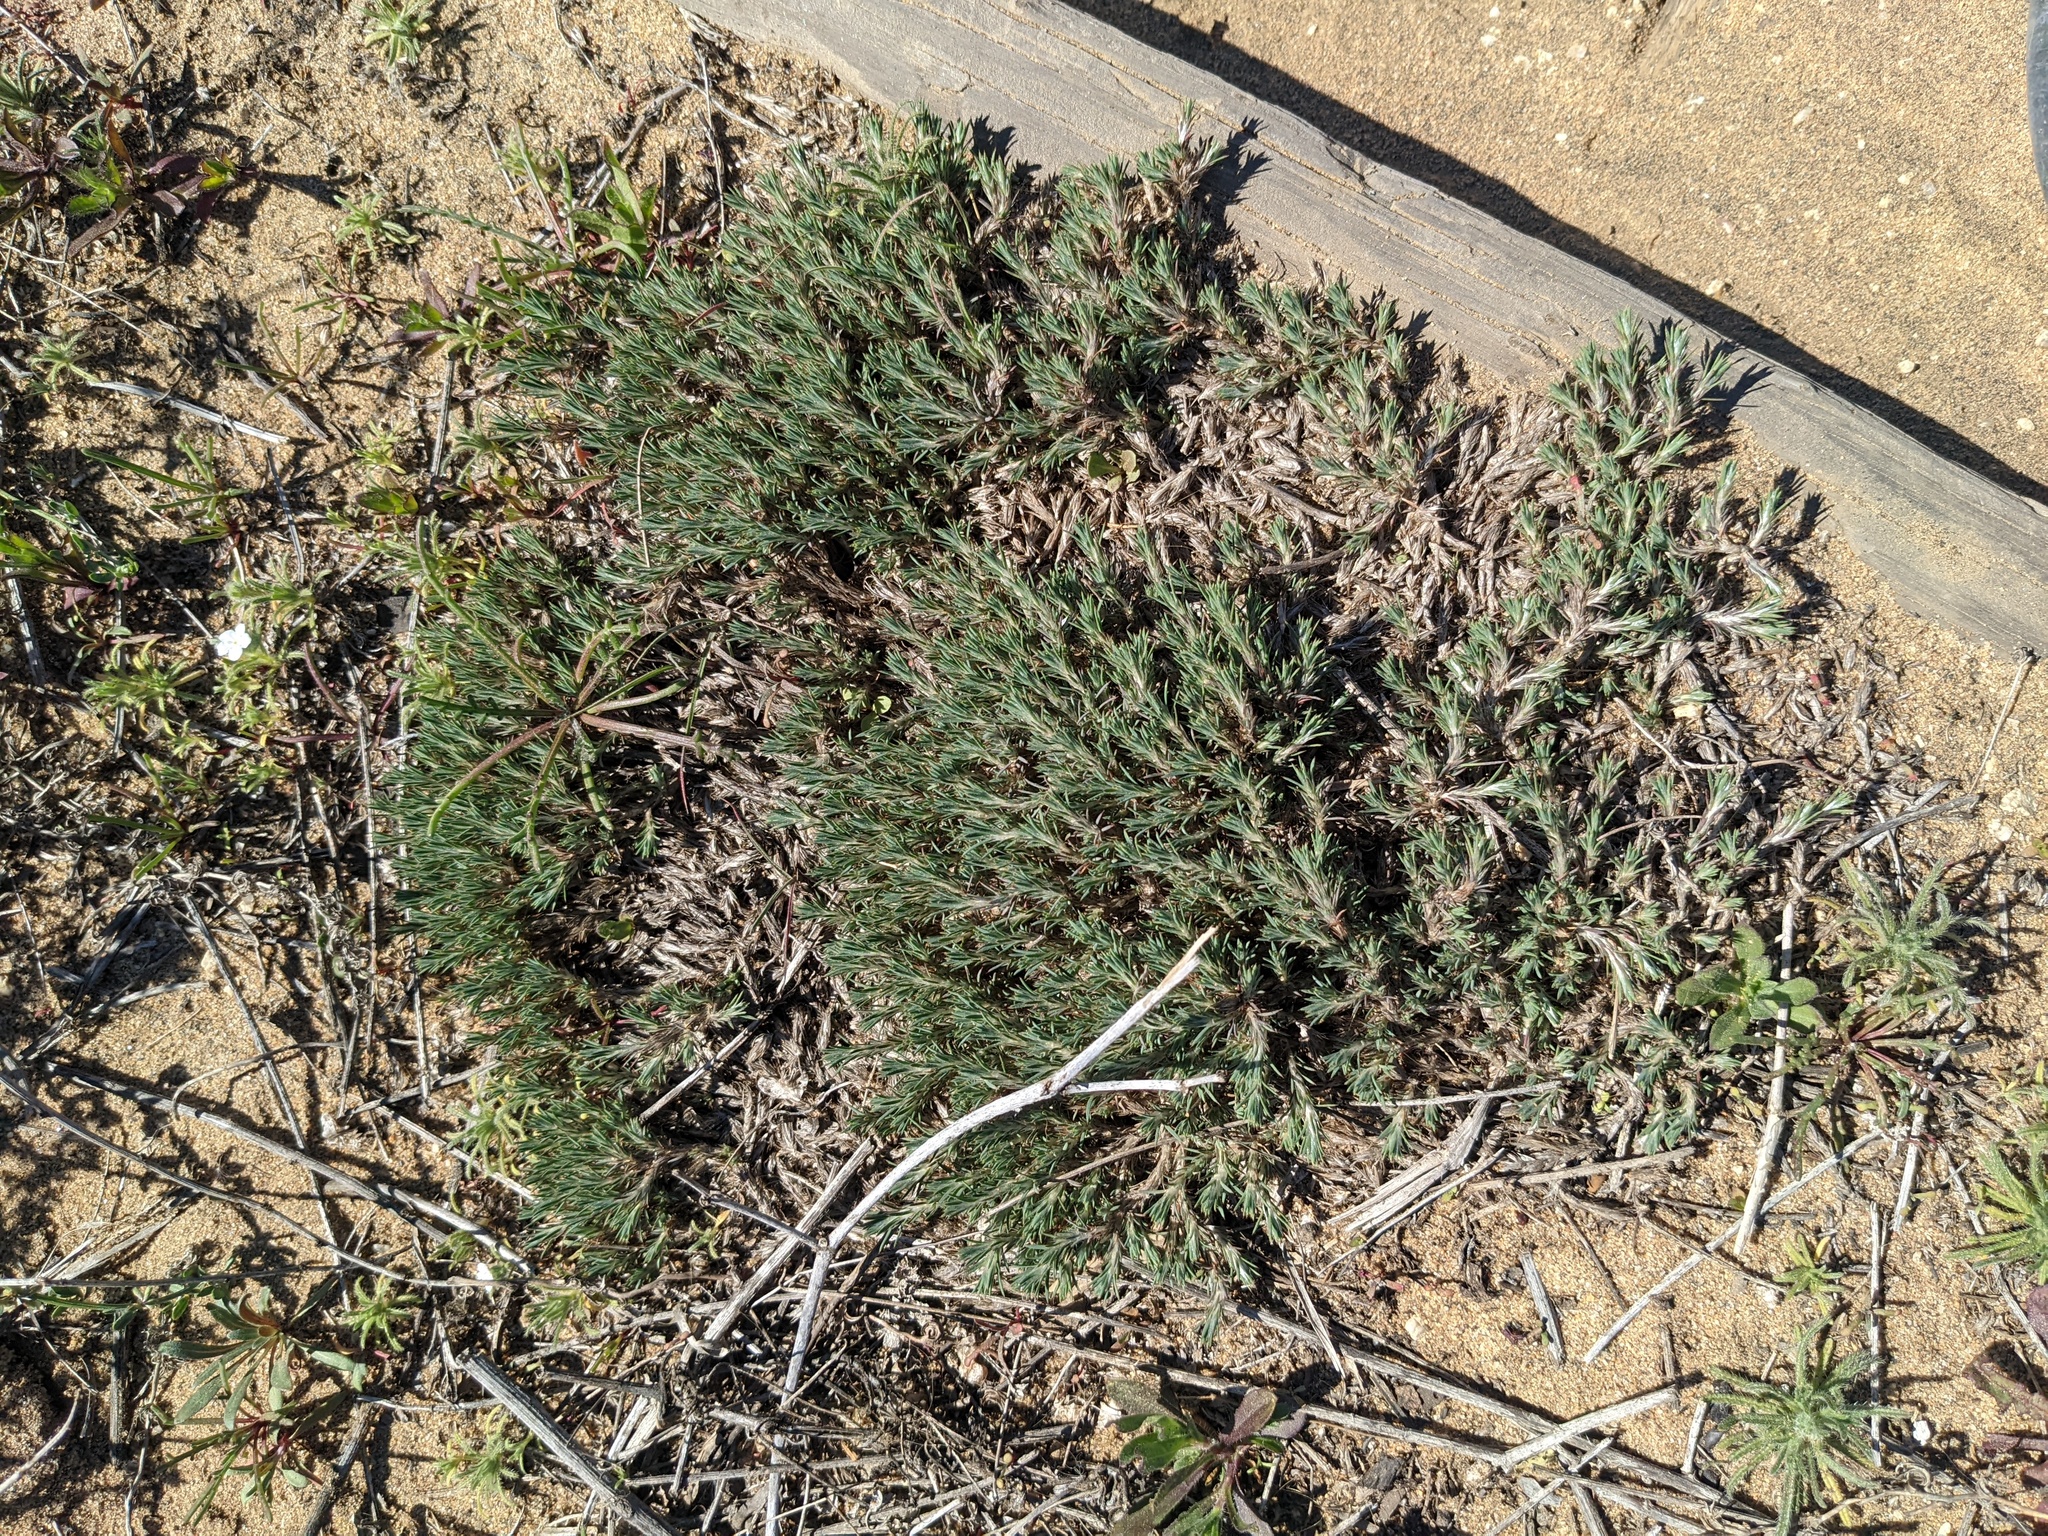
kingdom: Plantae
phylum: Tracheophyta
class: Magnoliopsida
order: Caryophyllales
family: Caryophyllaceae
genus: Cardionema
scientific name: Cardionema ramosissima
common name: Sandcarpet
